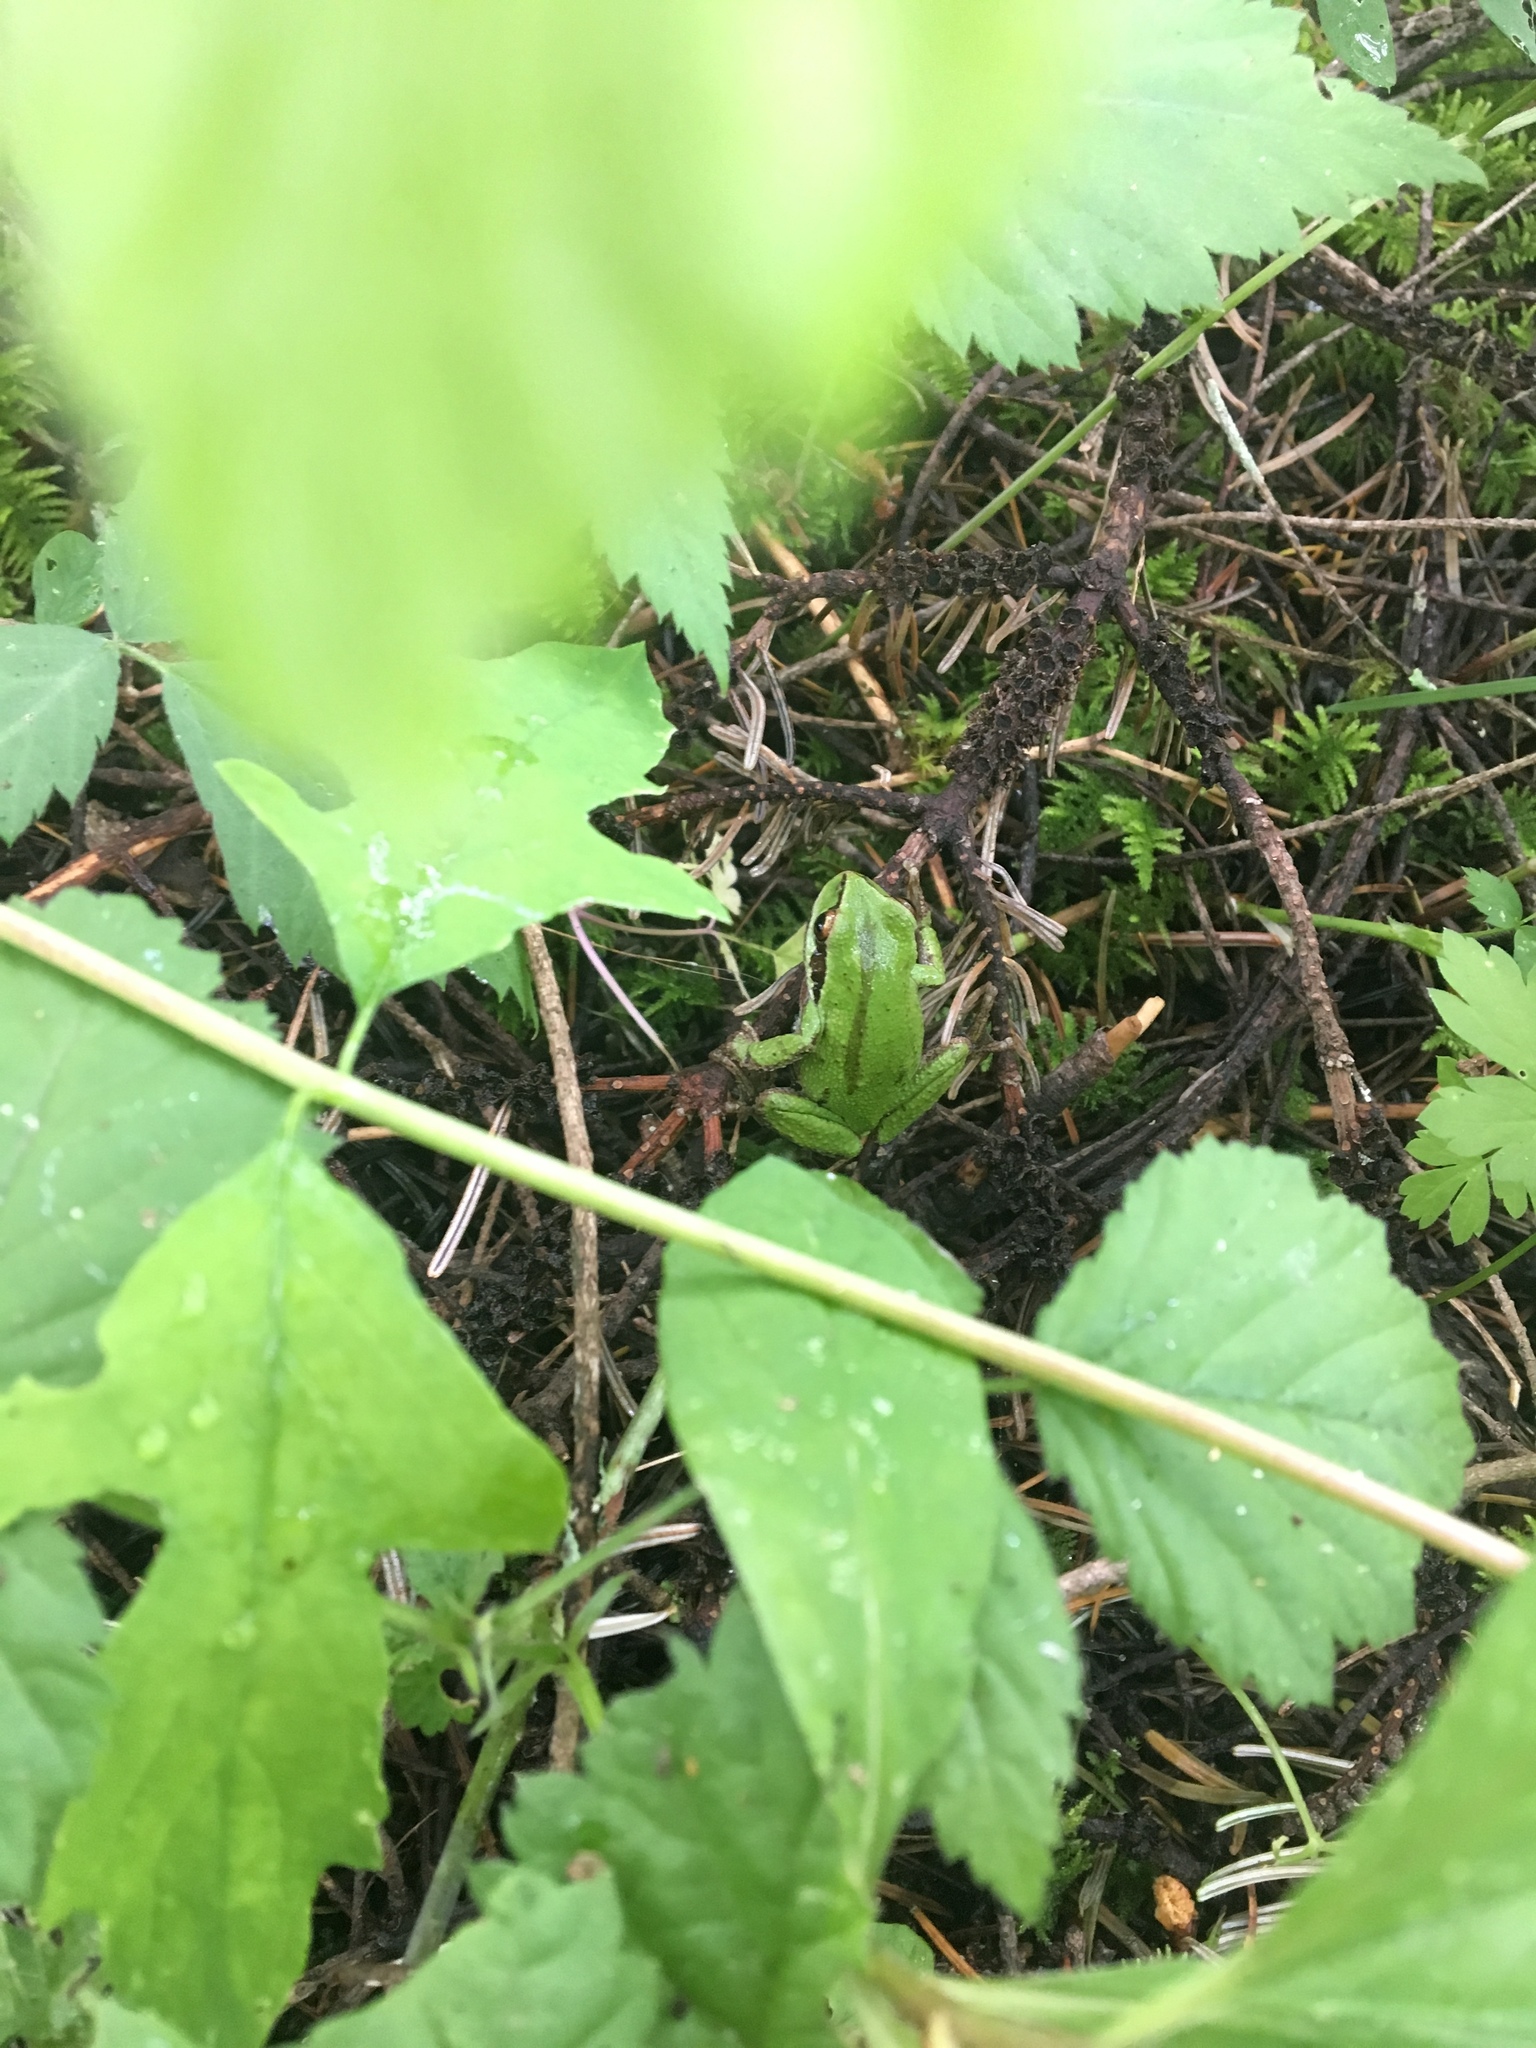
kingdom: Animalia
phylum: Chordata
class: Amphibia
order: Anura
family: Hylidae
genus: Pseudacris
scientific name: Pseudacris regilla
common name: Pacific chorus frog
